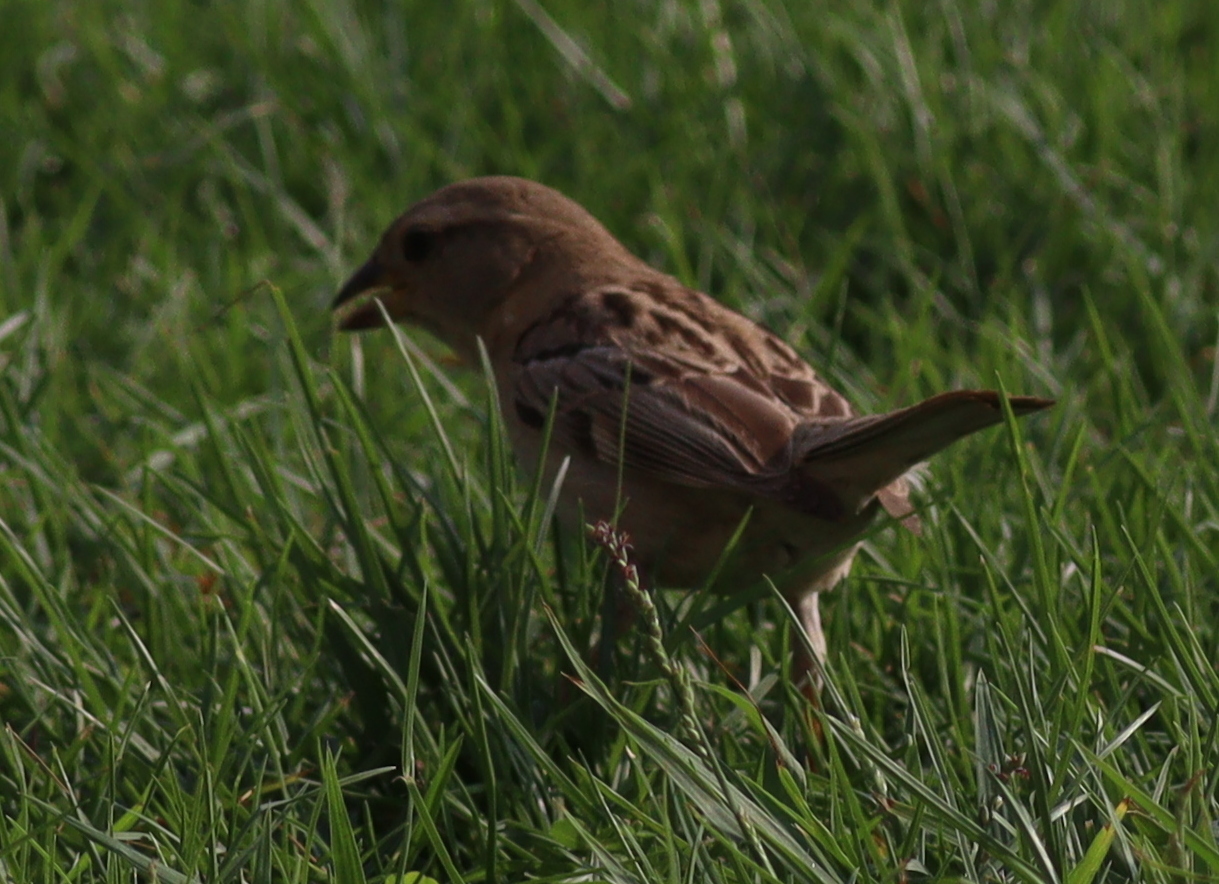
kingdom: Animalia
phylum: Chordata
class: Aves
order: Passeriformes
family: Passeridae
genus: Passer
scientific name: Passer domesticus
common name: House sparrow
